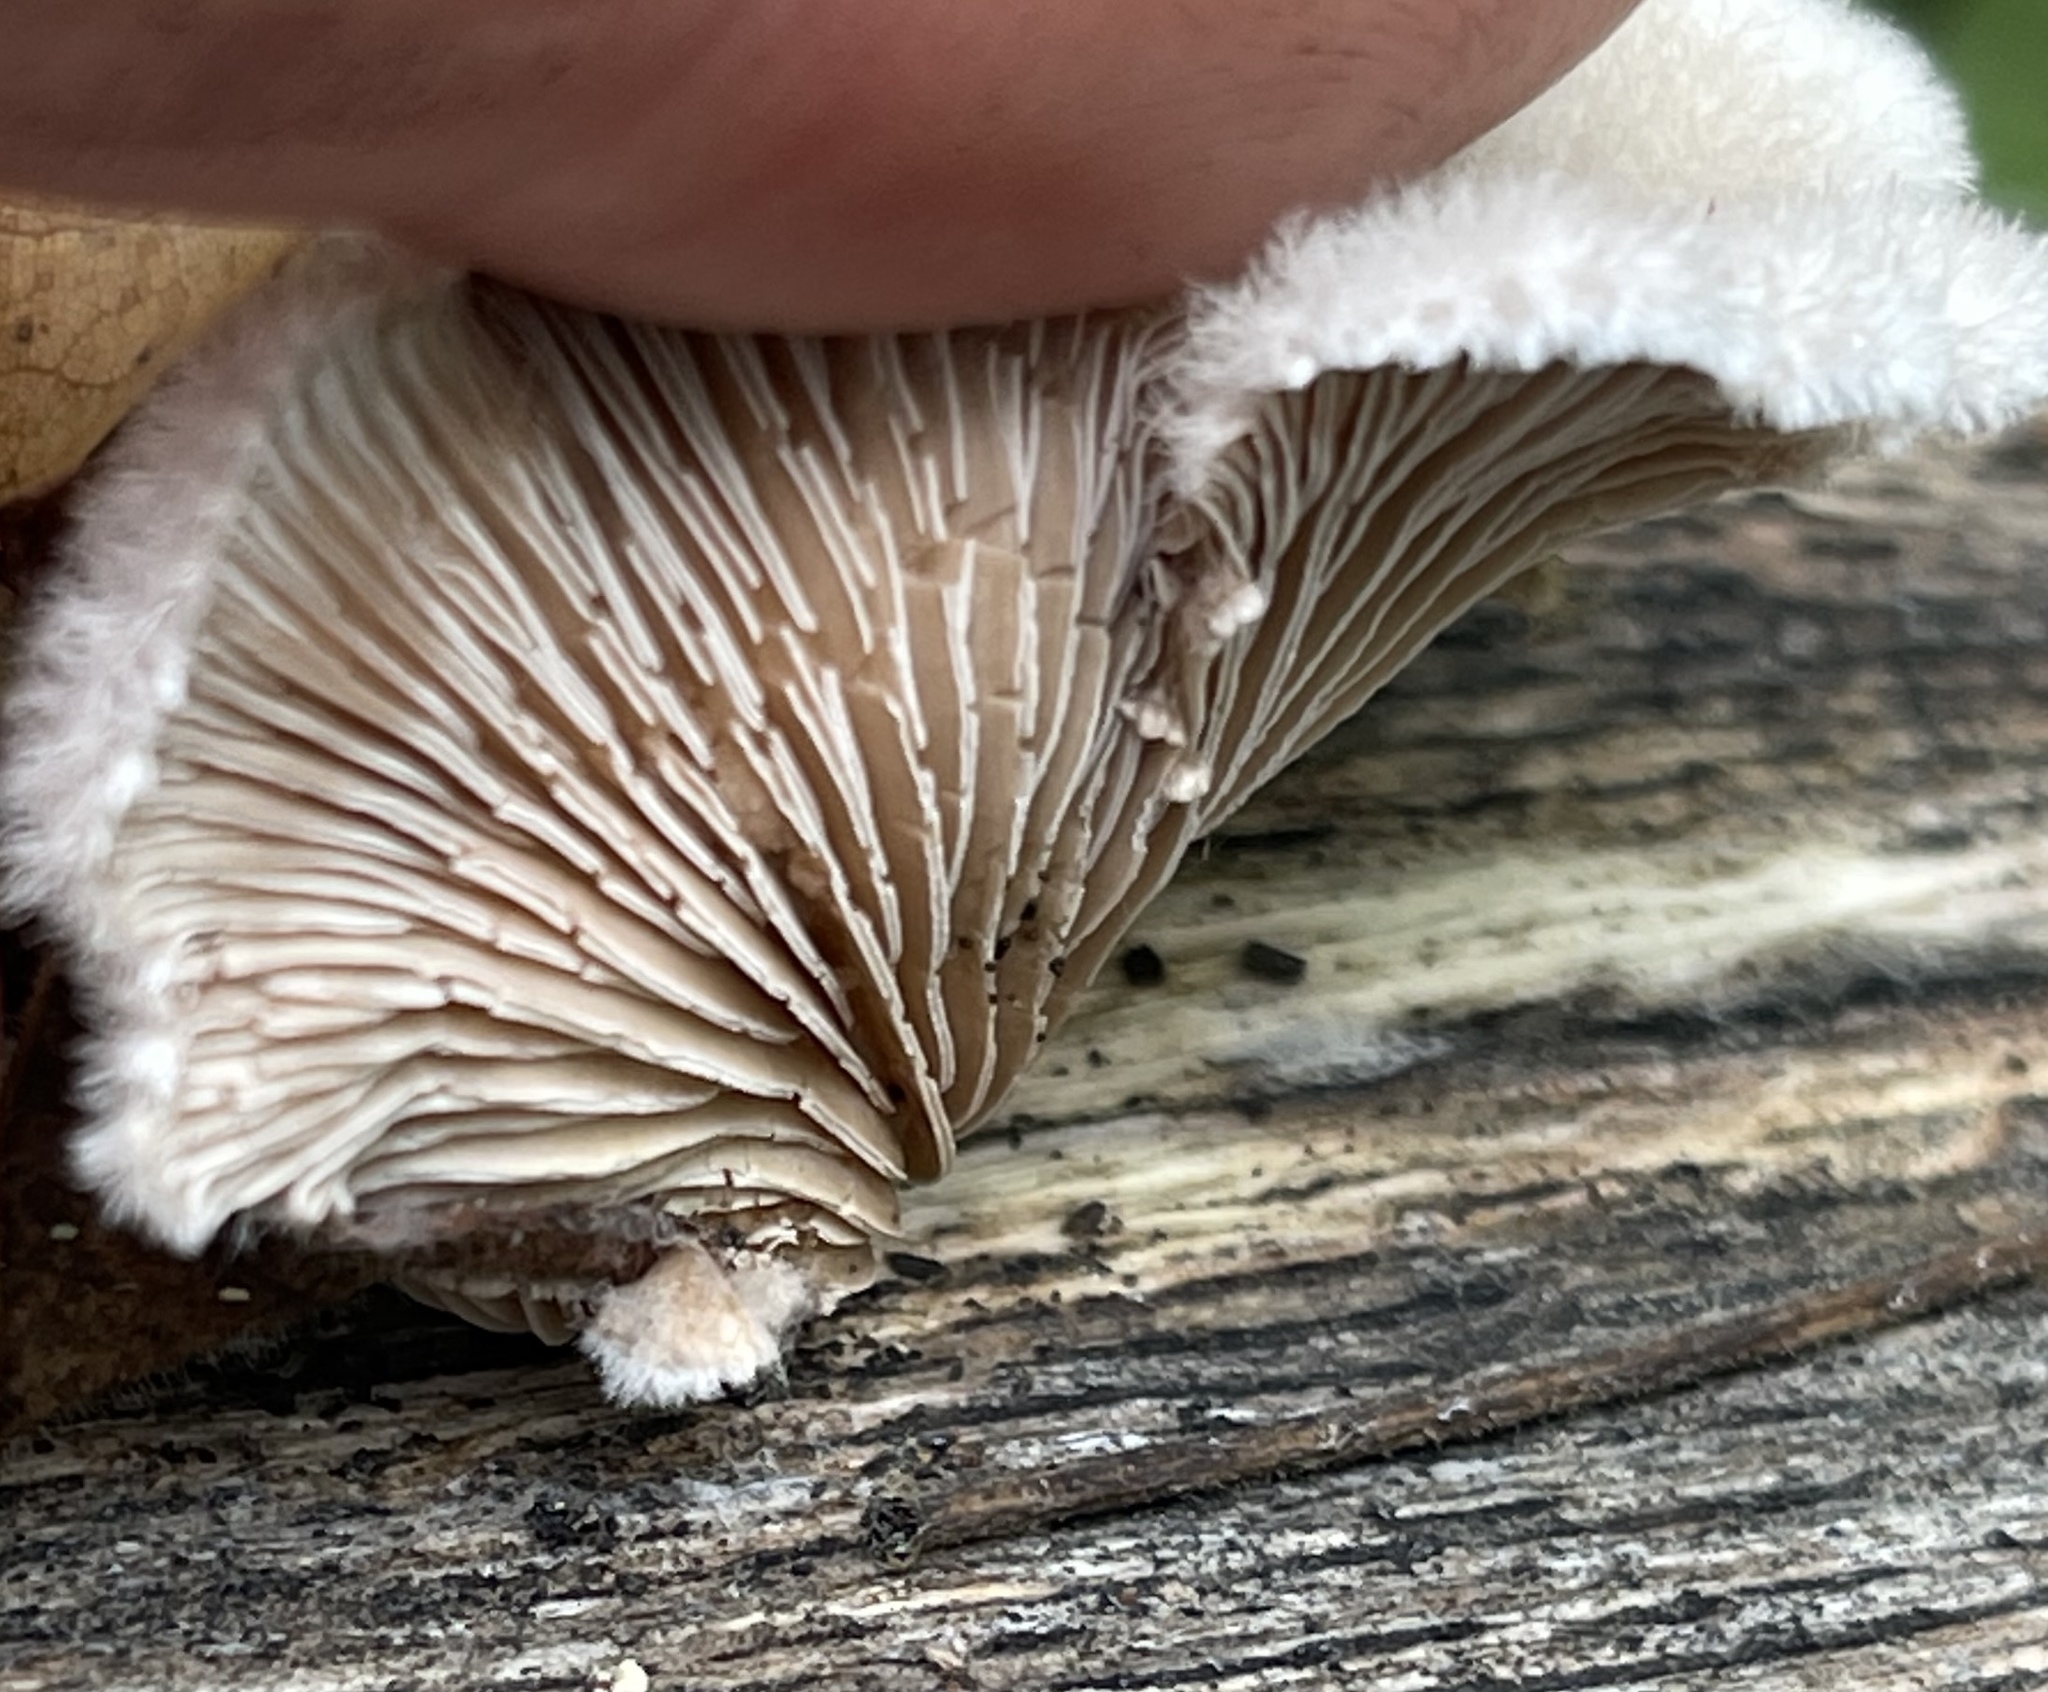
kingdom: Fungi
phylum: Basidiomycota
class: Agaricomycetes
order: Agaricales
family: Schizophyllaceae
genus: Schizophyllum
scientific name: Schizophyllum commune
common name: Common porecrust
